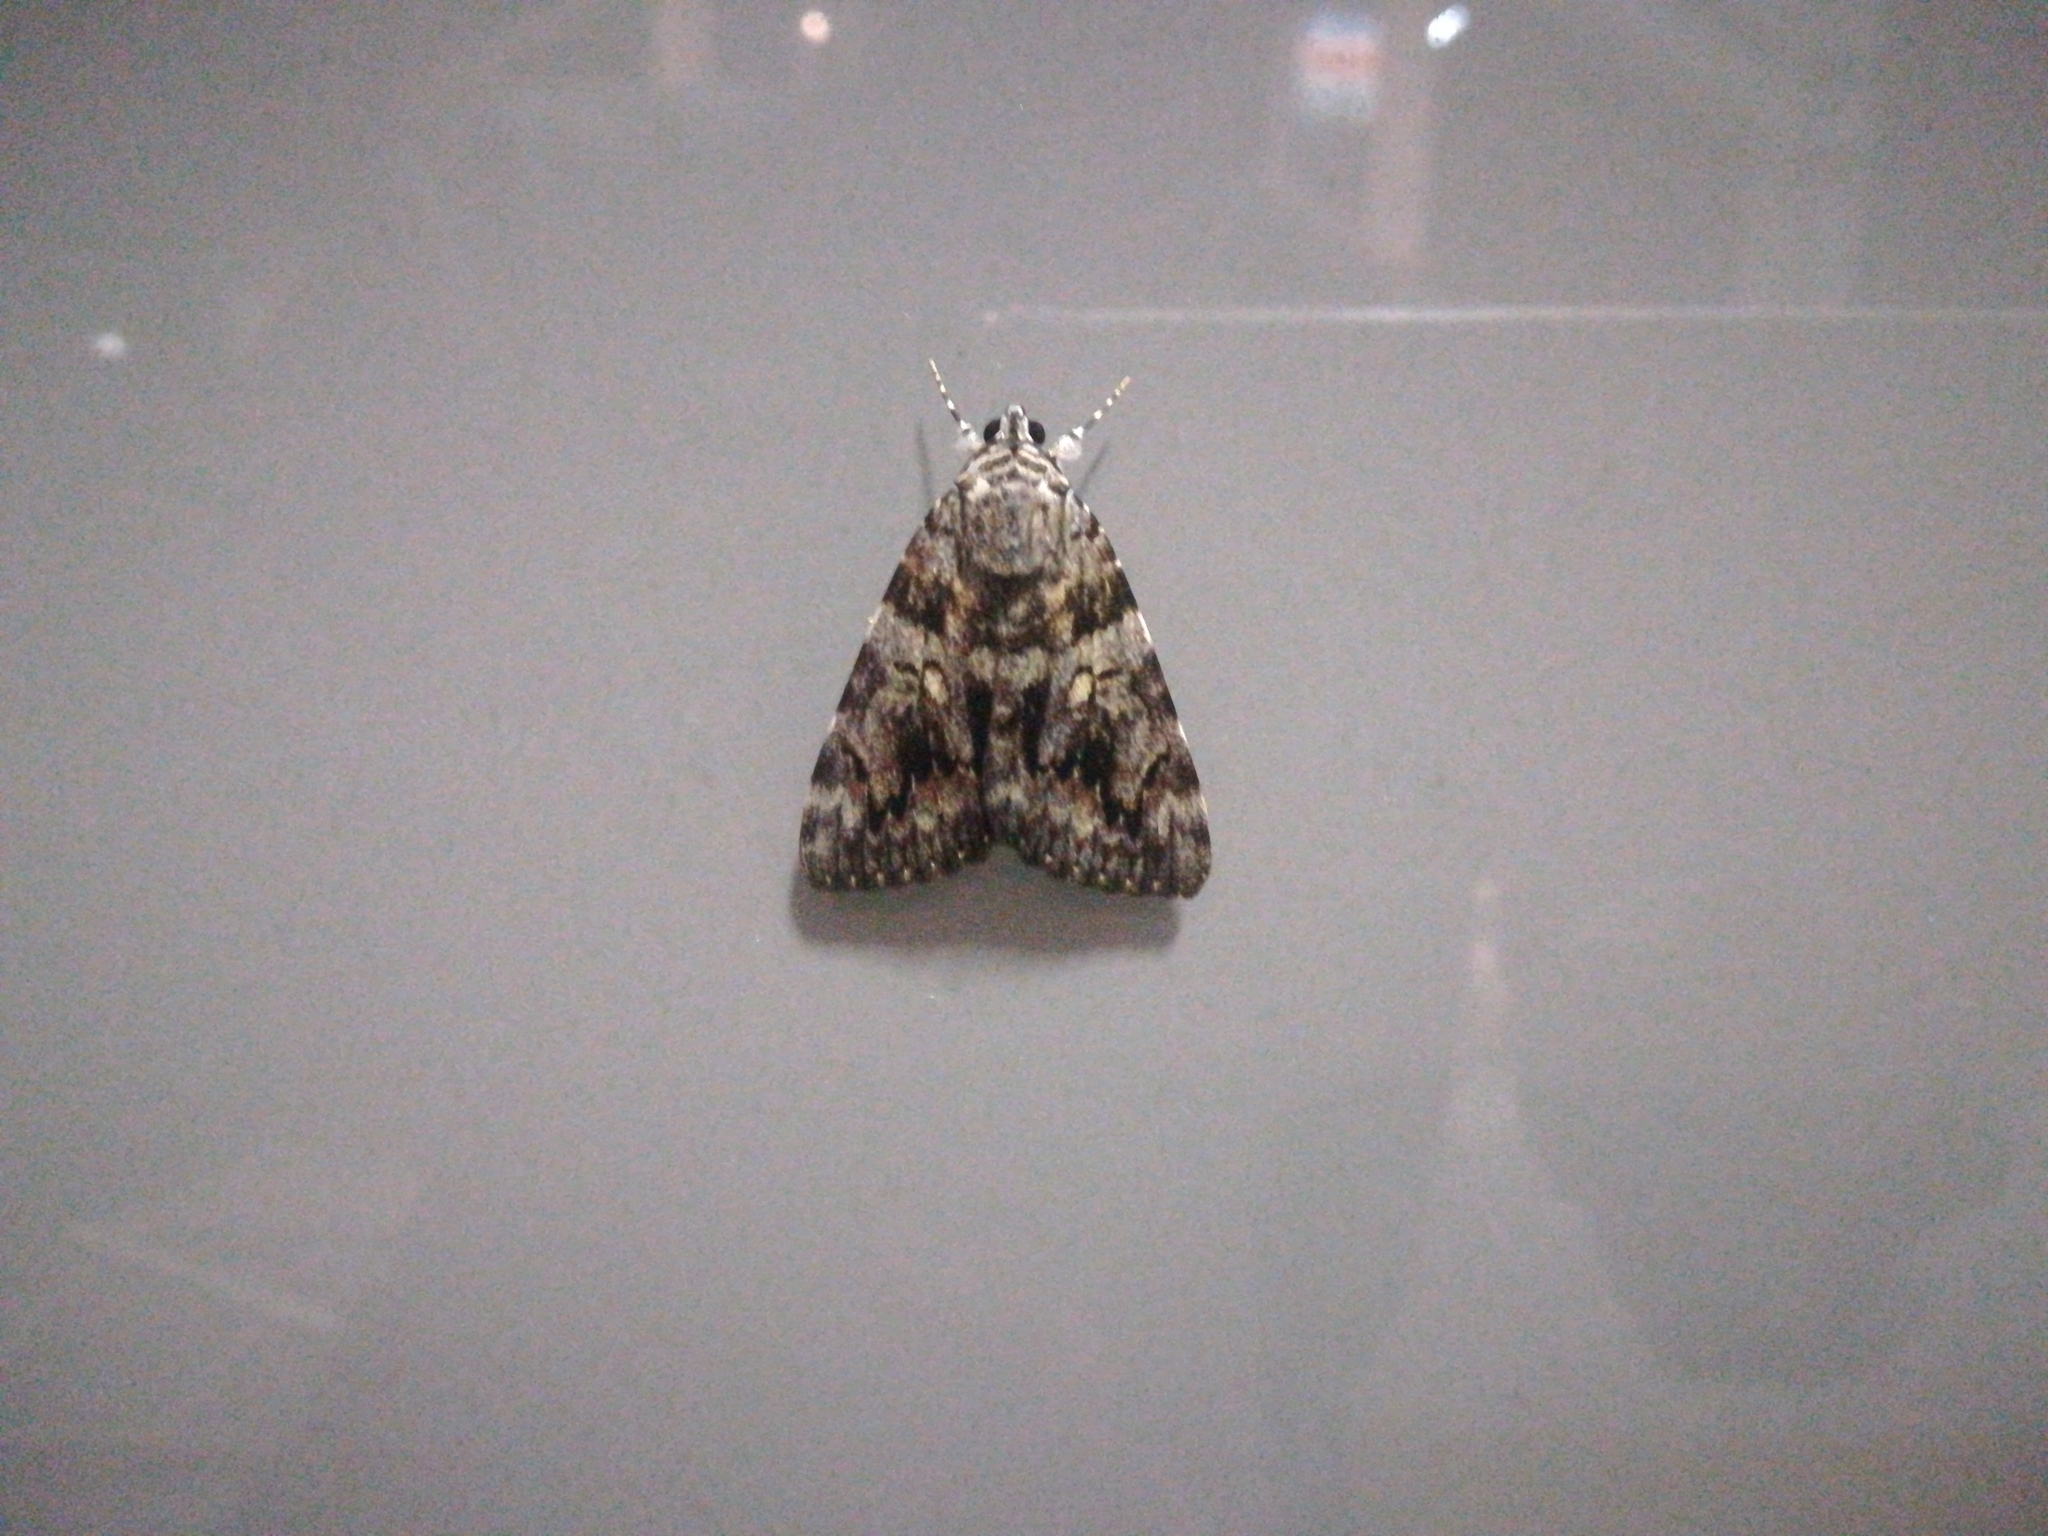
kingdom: Animalia
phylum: Arthropoda
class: Insecta
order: Lepidoptera
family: Erebidae
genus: Catocala
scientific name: Catocala nubila
